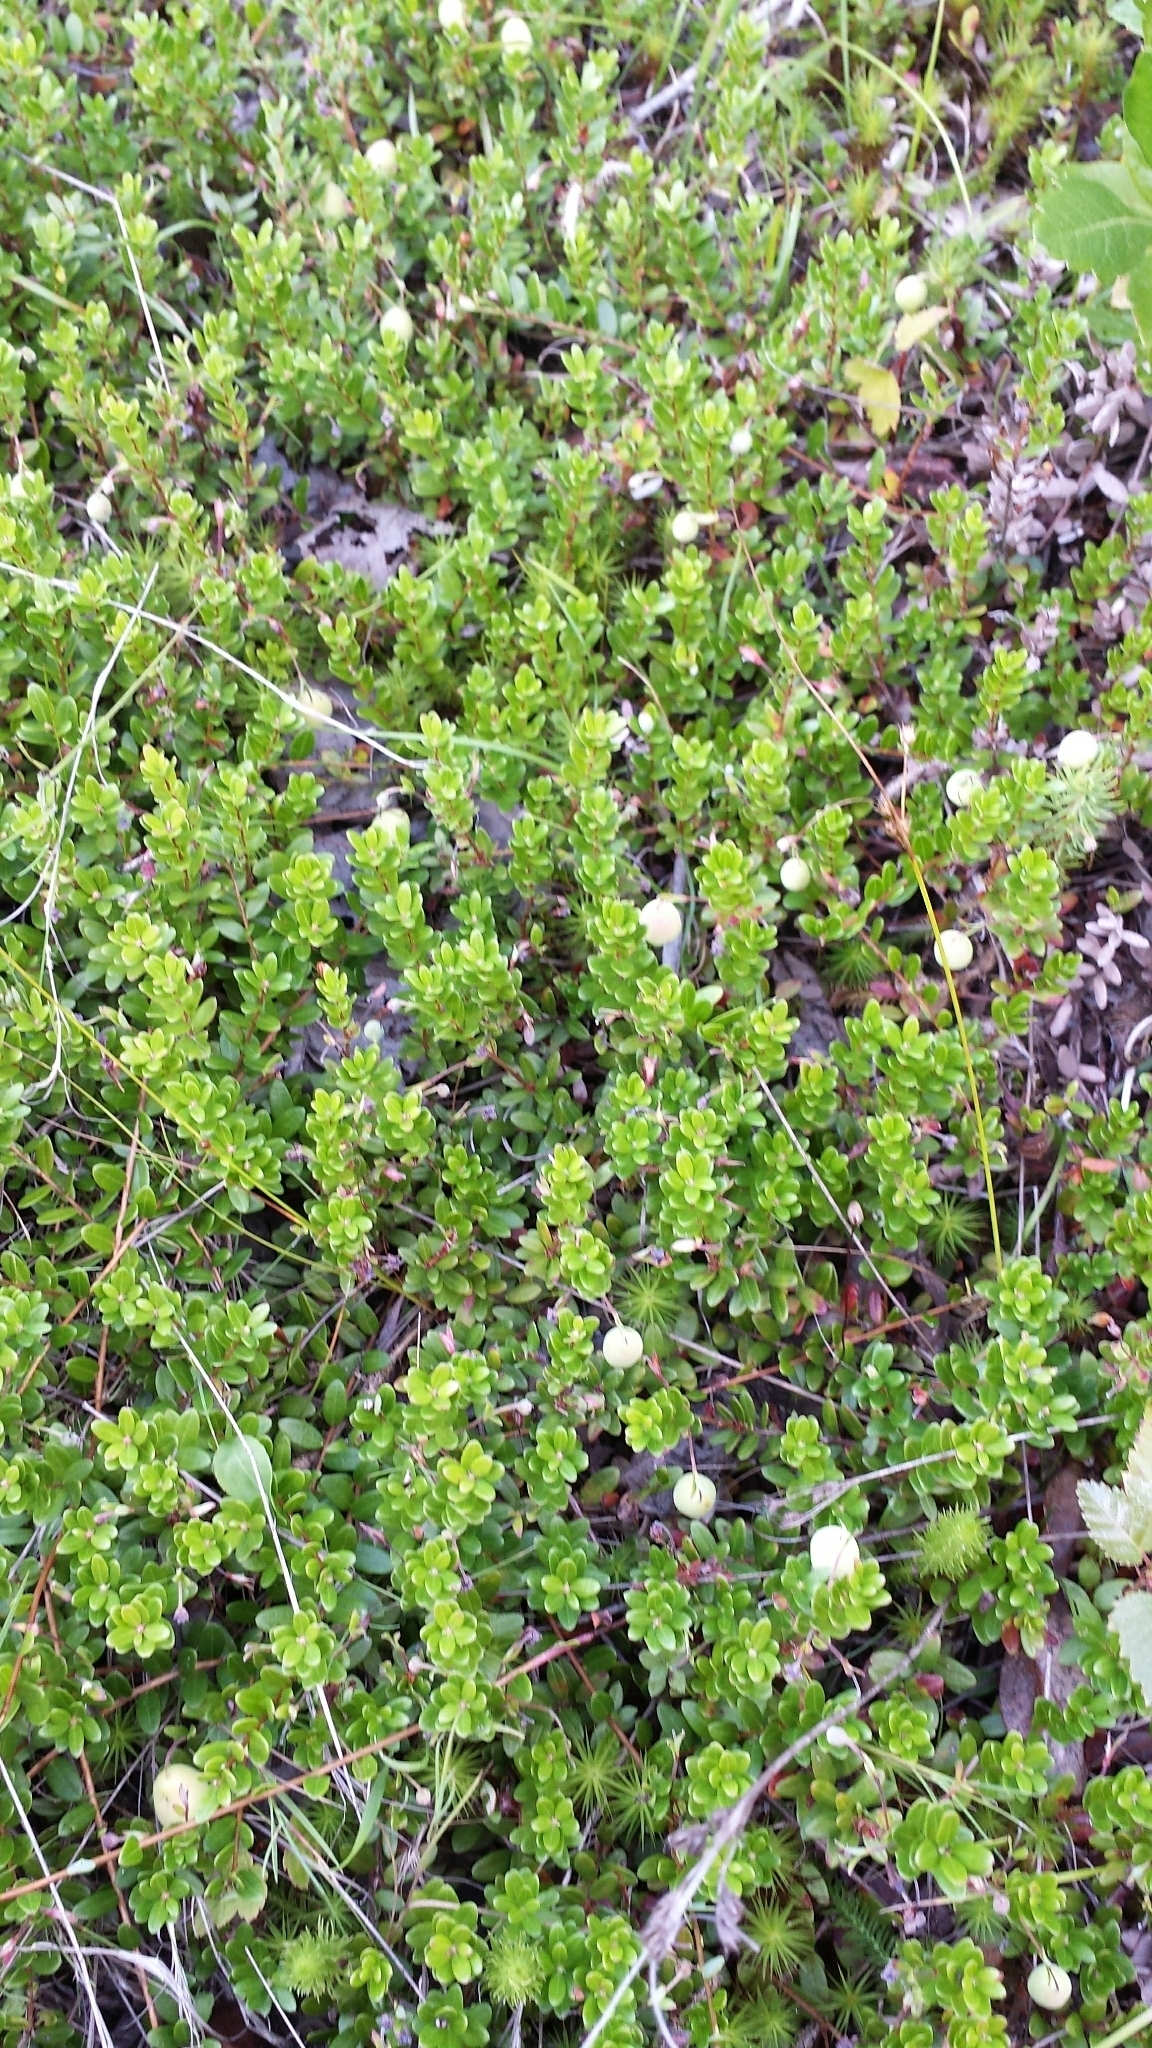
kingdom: Plantae
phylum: Tracheophyta
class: Magnoliopsida
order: Ericales
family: Ericaceae
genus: Vaccinium
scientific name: Vaccinium macrocarpon
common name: American cranberry
